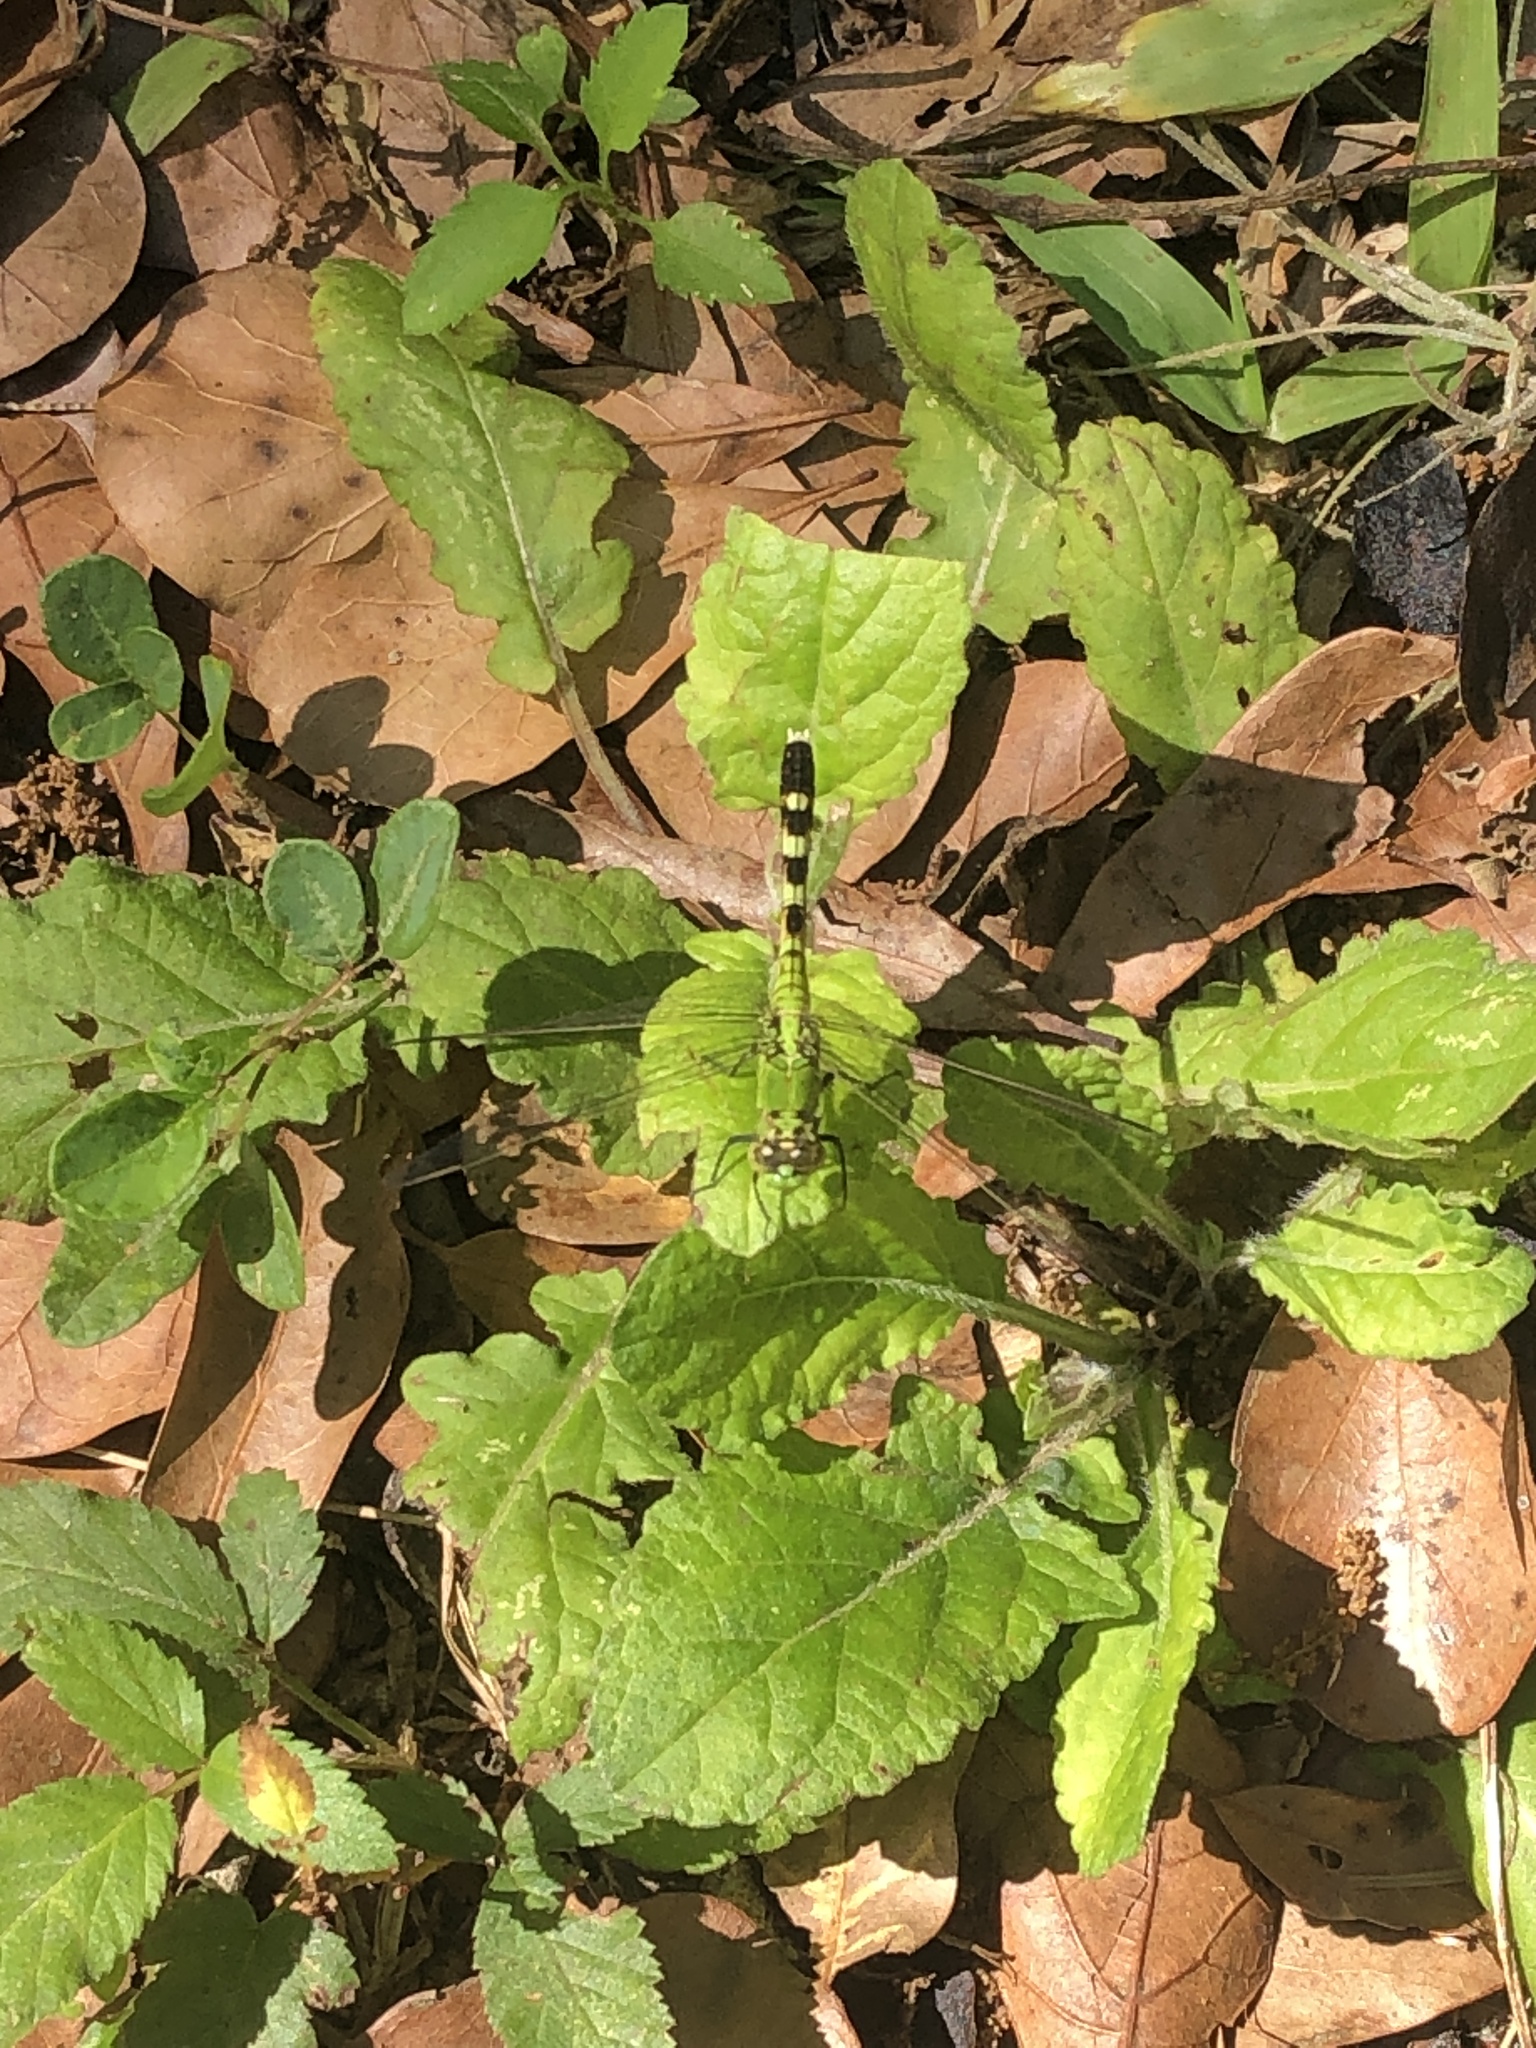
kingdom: Animalia
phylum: Arthropoda
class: Insecta
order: Odonata
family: Libellulidae
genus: Erythemis
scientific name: Erythemis simplicicollis
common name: Eastern pondhawk
